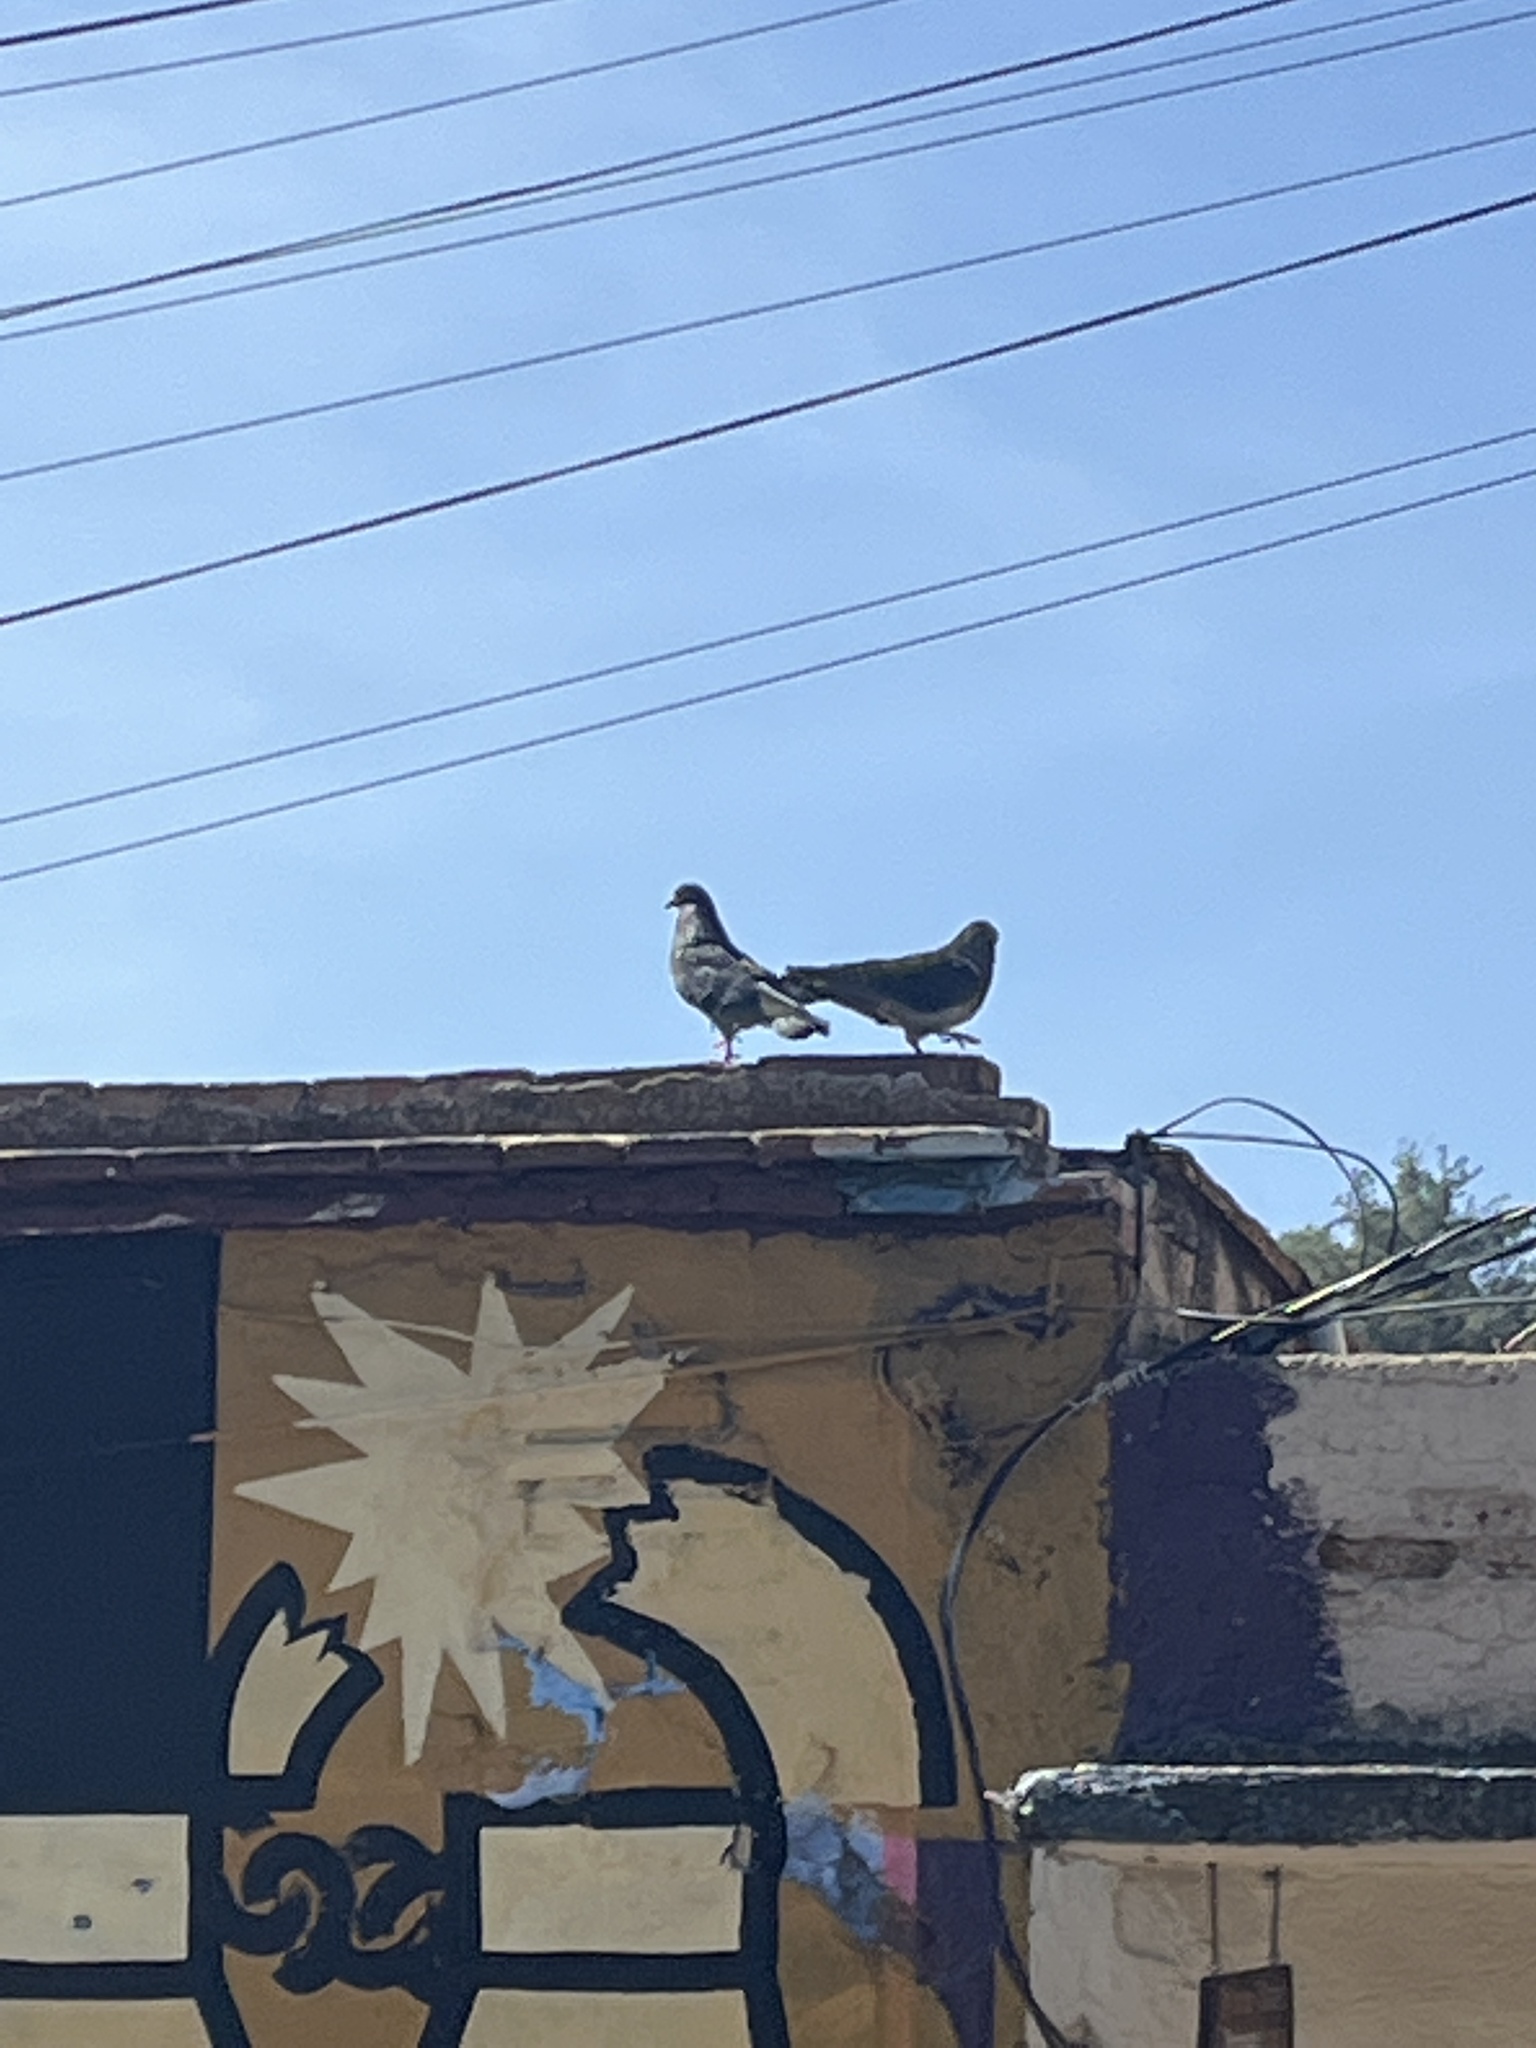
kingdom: Animalia
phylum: Chordata
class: Aves
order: Columbiformes
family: Columbidae
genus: Columba
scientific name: Columba livia
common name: Rock pigeon
